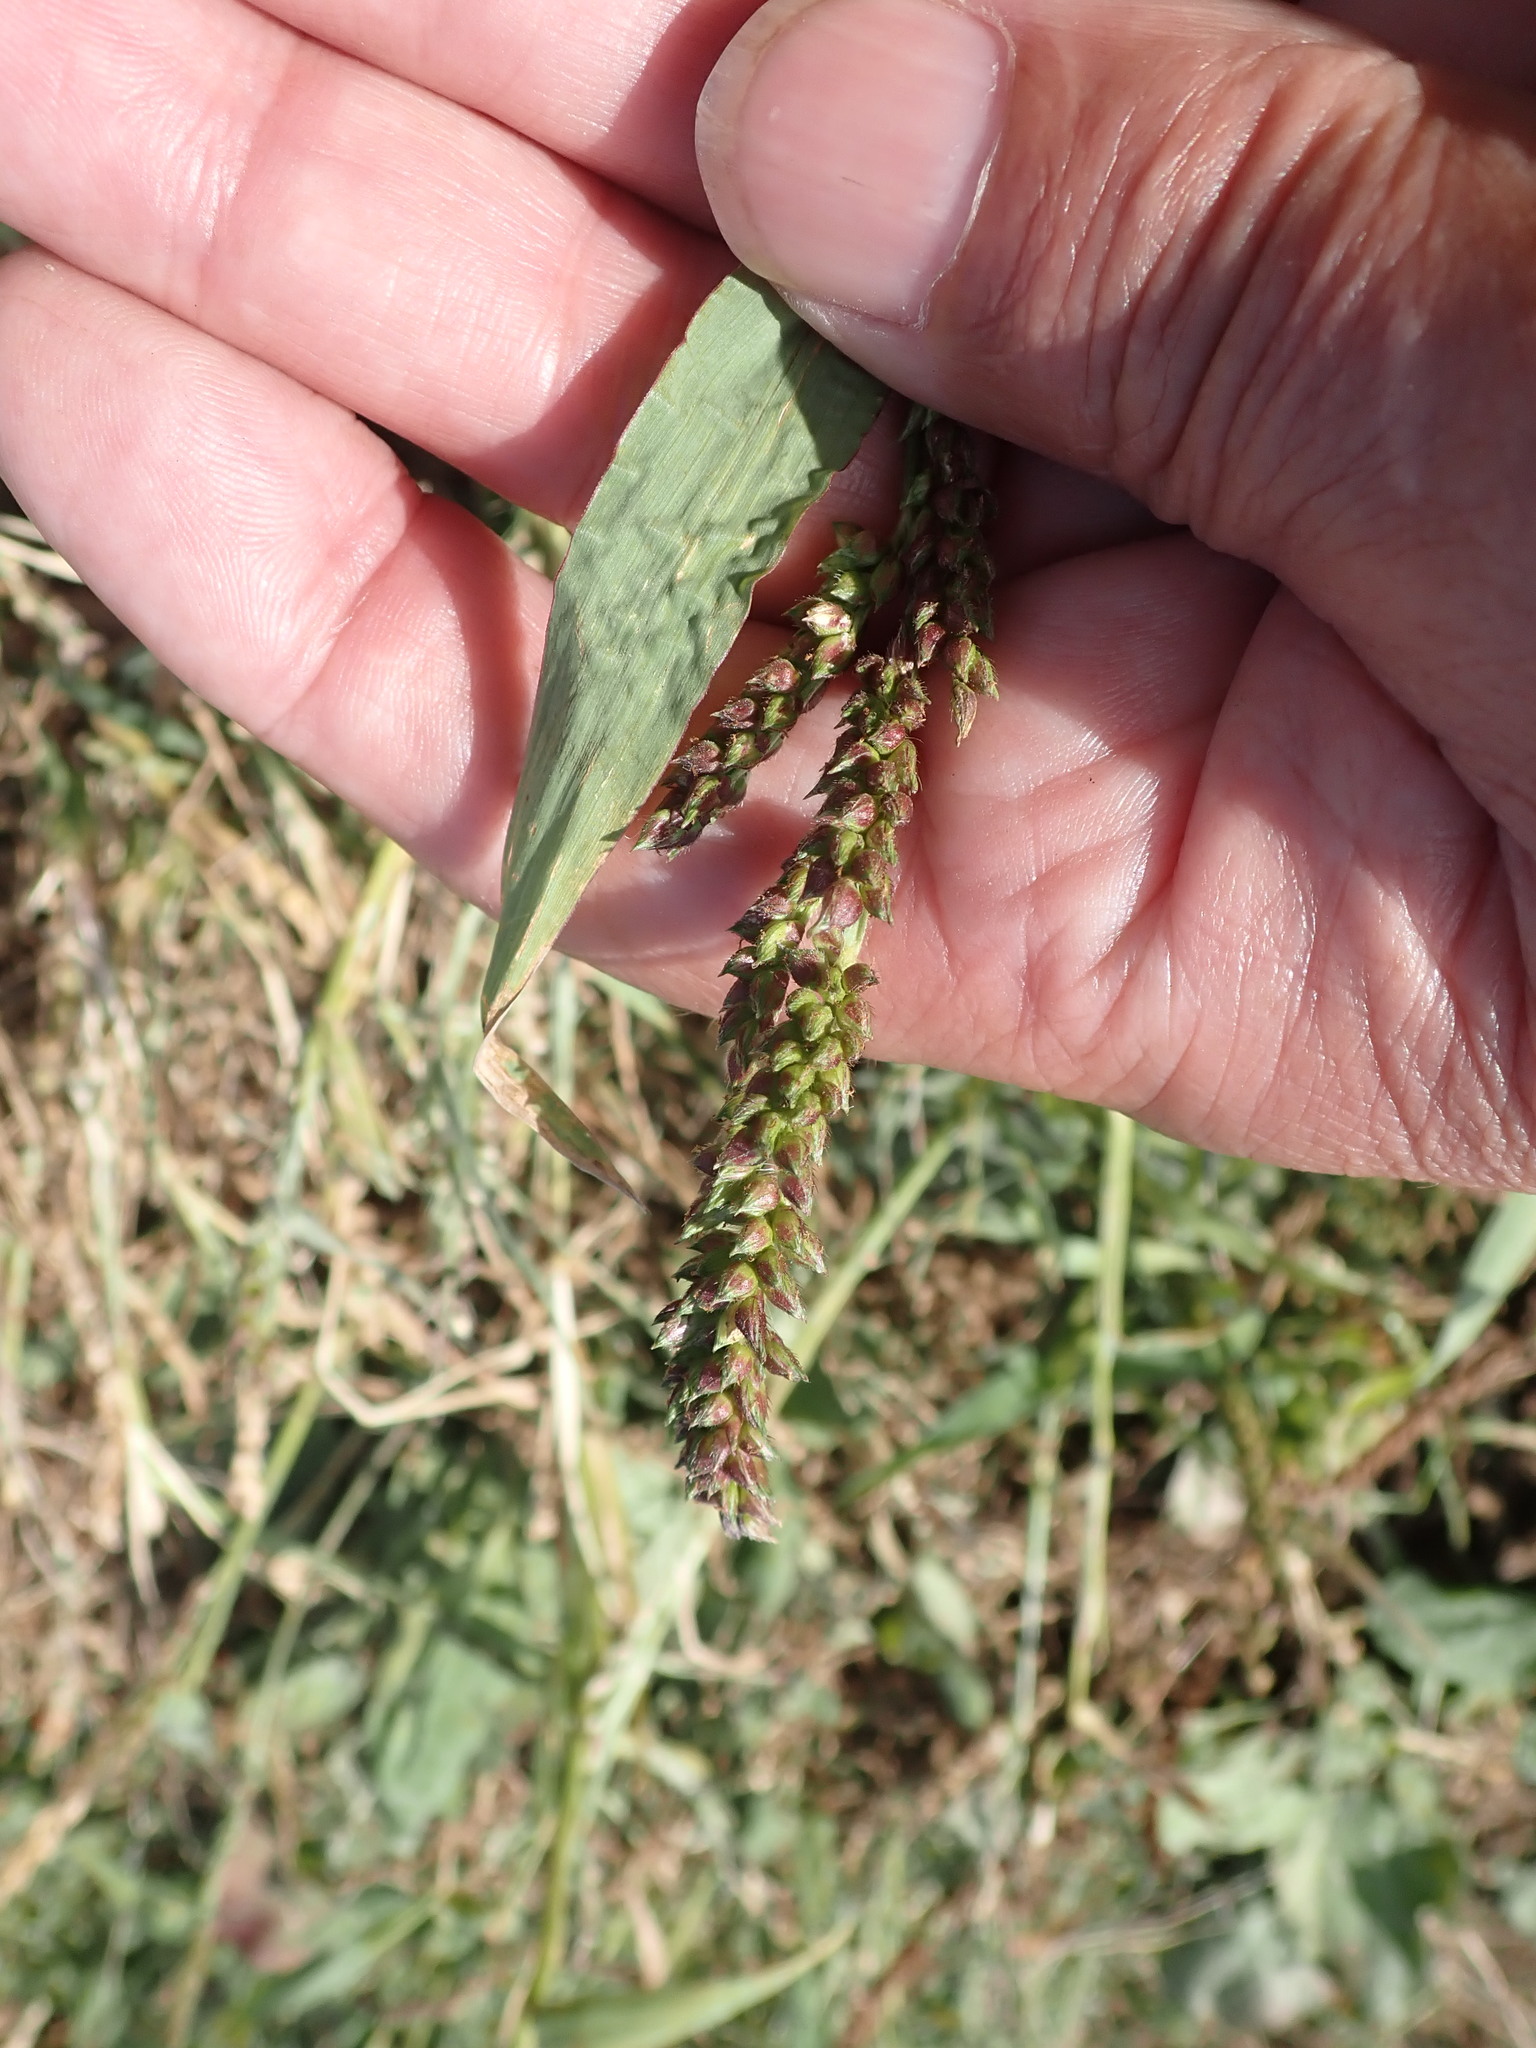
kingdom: Plantae
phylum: Tracheophyta
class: Liliopsida
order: Poales
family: Poaceae
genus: Echinochloa
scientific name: Echinochloa crus-galli
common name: Cockspur
